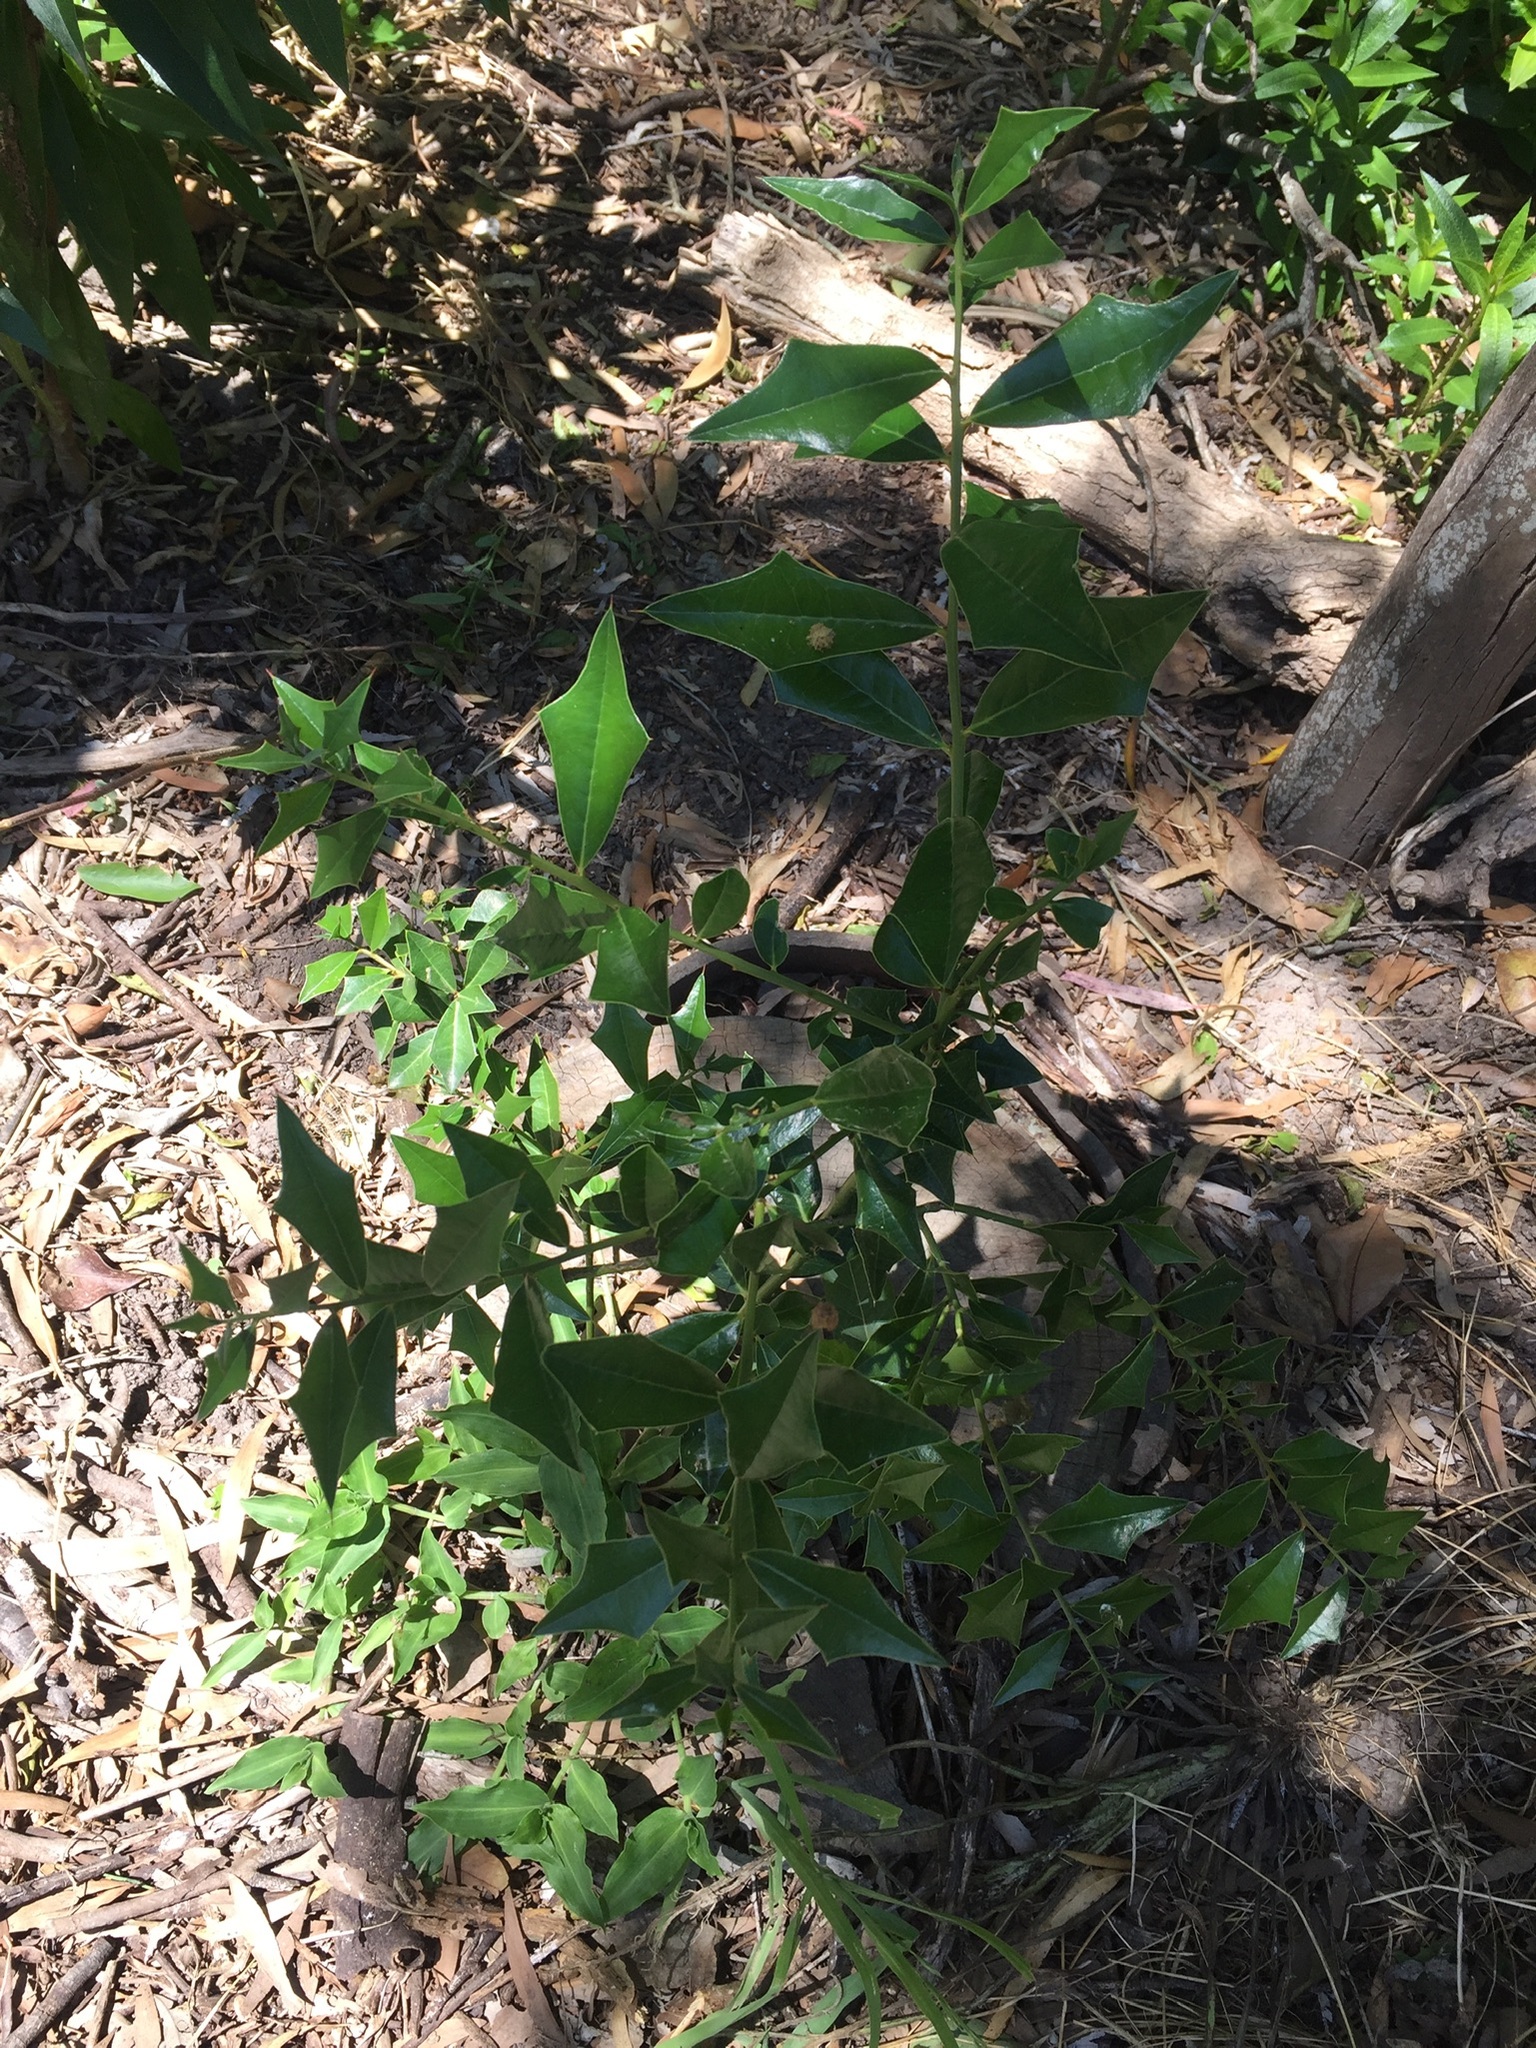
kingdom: Plantae
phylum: Tracheophyta
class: Magnoliopsida
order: Santalales
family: Cervantesiaceae
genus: Jodina
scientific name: Jodina rhombifolia
